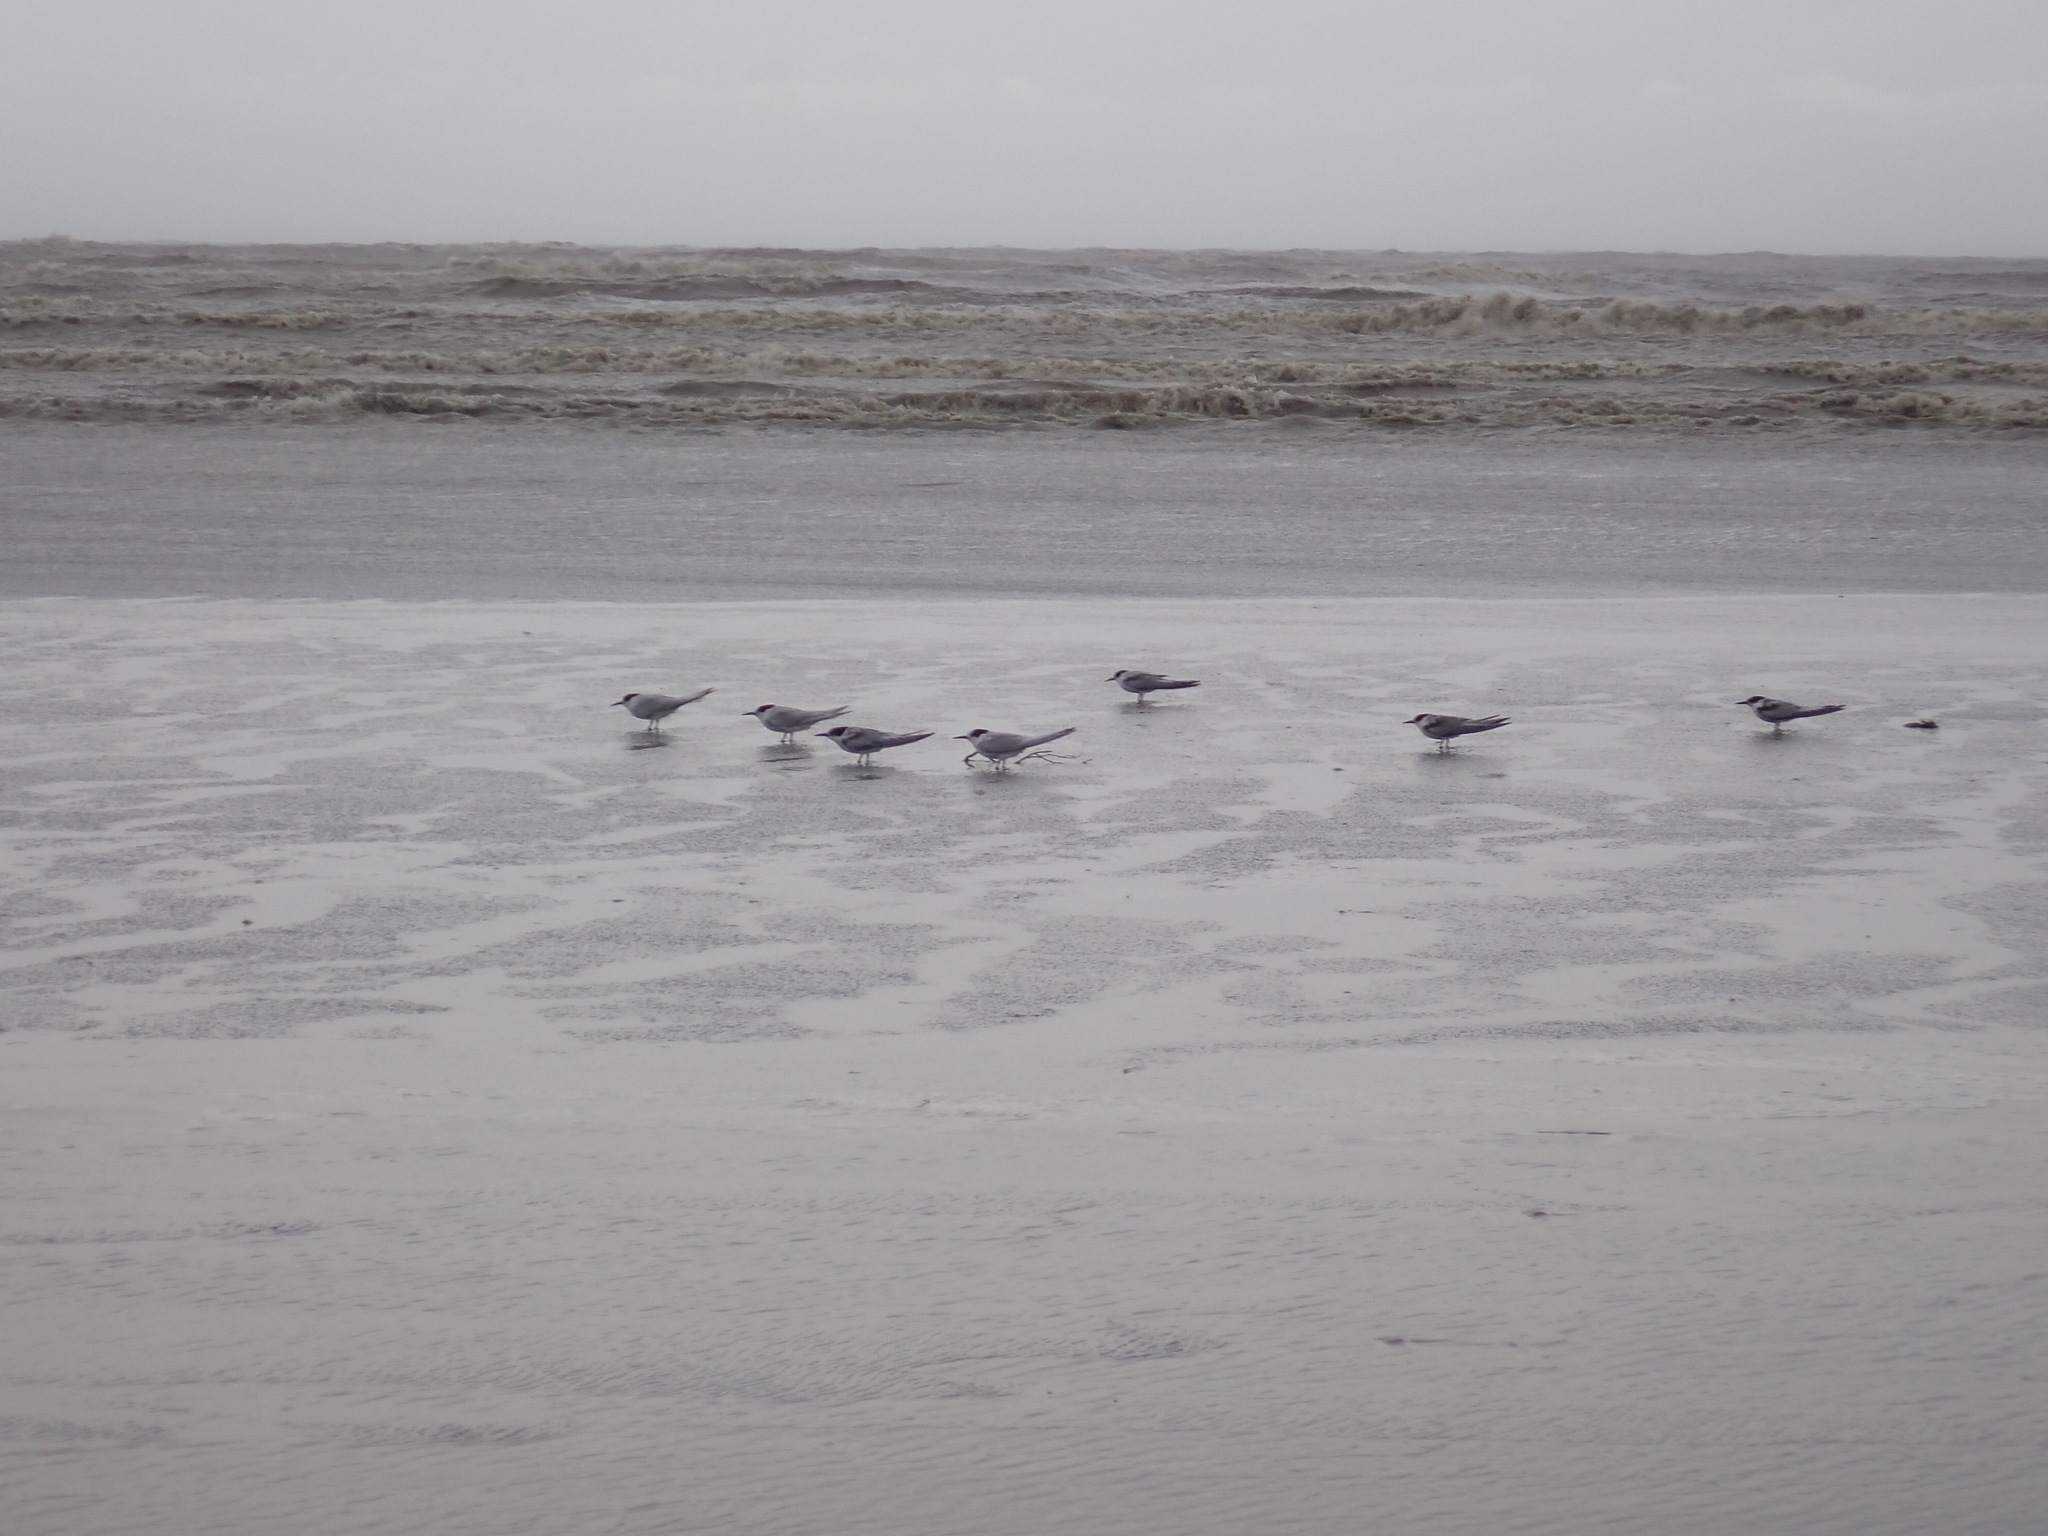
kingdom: Animalia
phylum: Chordata
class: Aves
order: Charadriiformes
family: Laridae
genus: Sterna
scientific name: Sterna striata
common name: White-fronted tern
